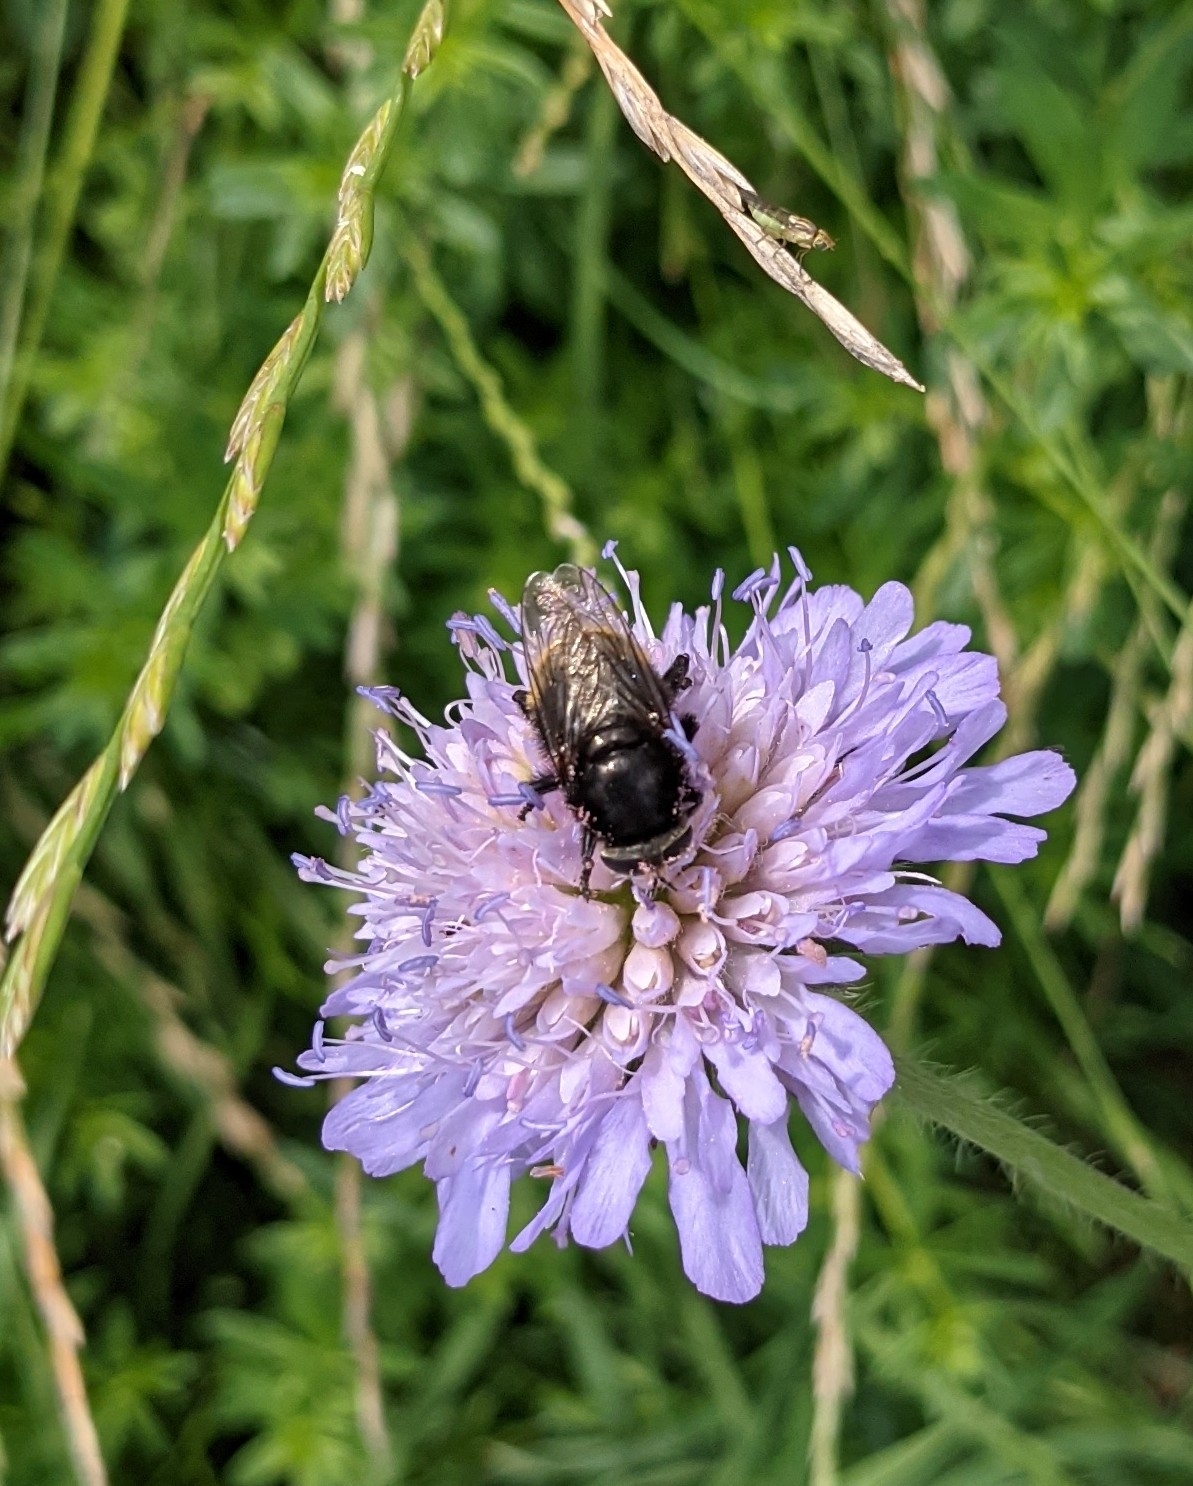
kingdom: Animalia
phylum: Arthropoda
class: Insecta
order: Diptera
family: Syrphidae
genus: Merodon
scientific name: Merodon equestris
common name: Greater bulb-fly
